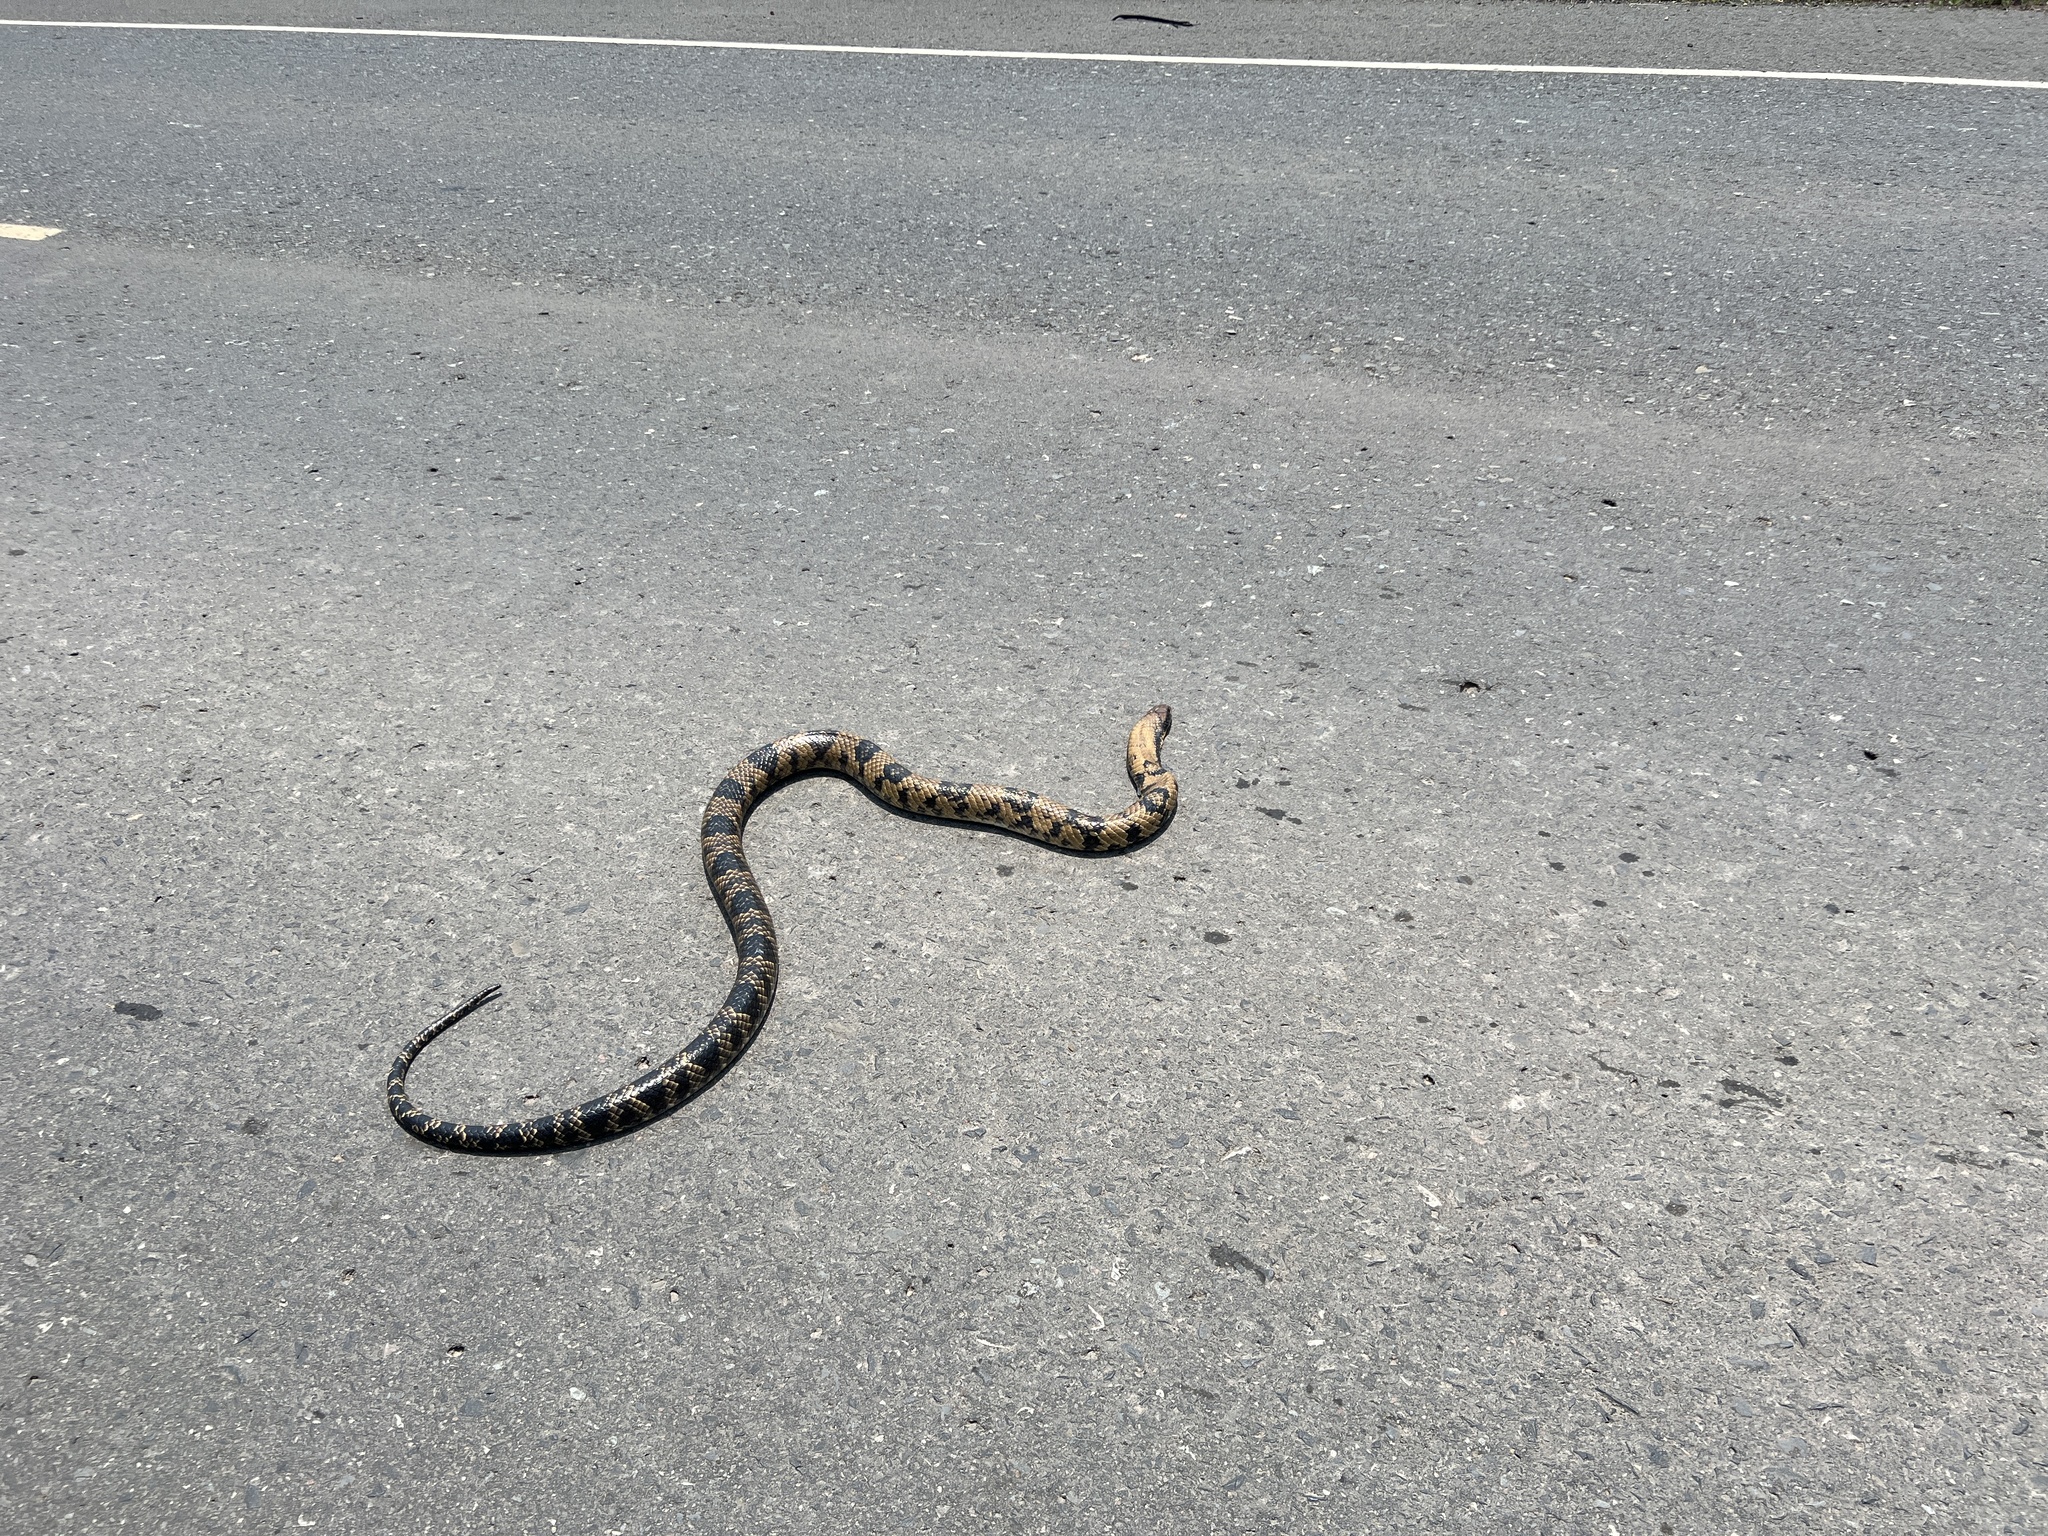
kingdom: Animalia
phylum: Chordata
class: Squamata
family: Colubridae
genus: Hydrodynastes
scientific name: Hydrodynastes gigas
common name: False water cobra
